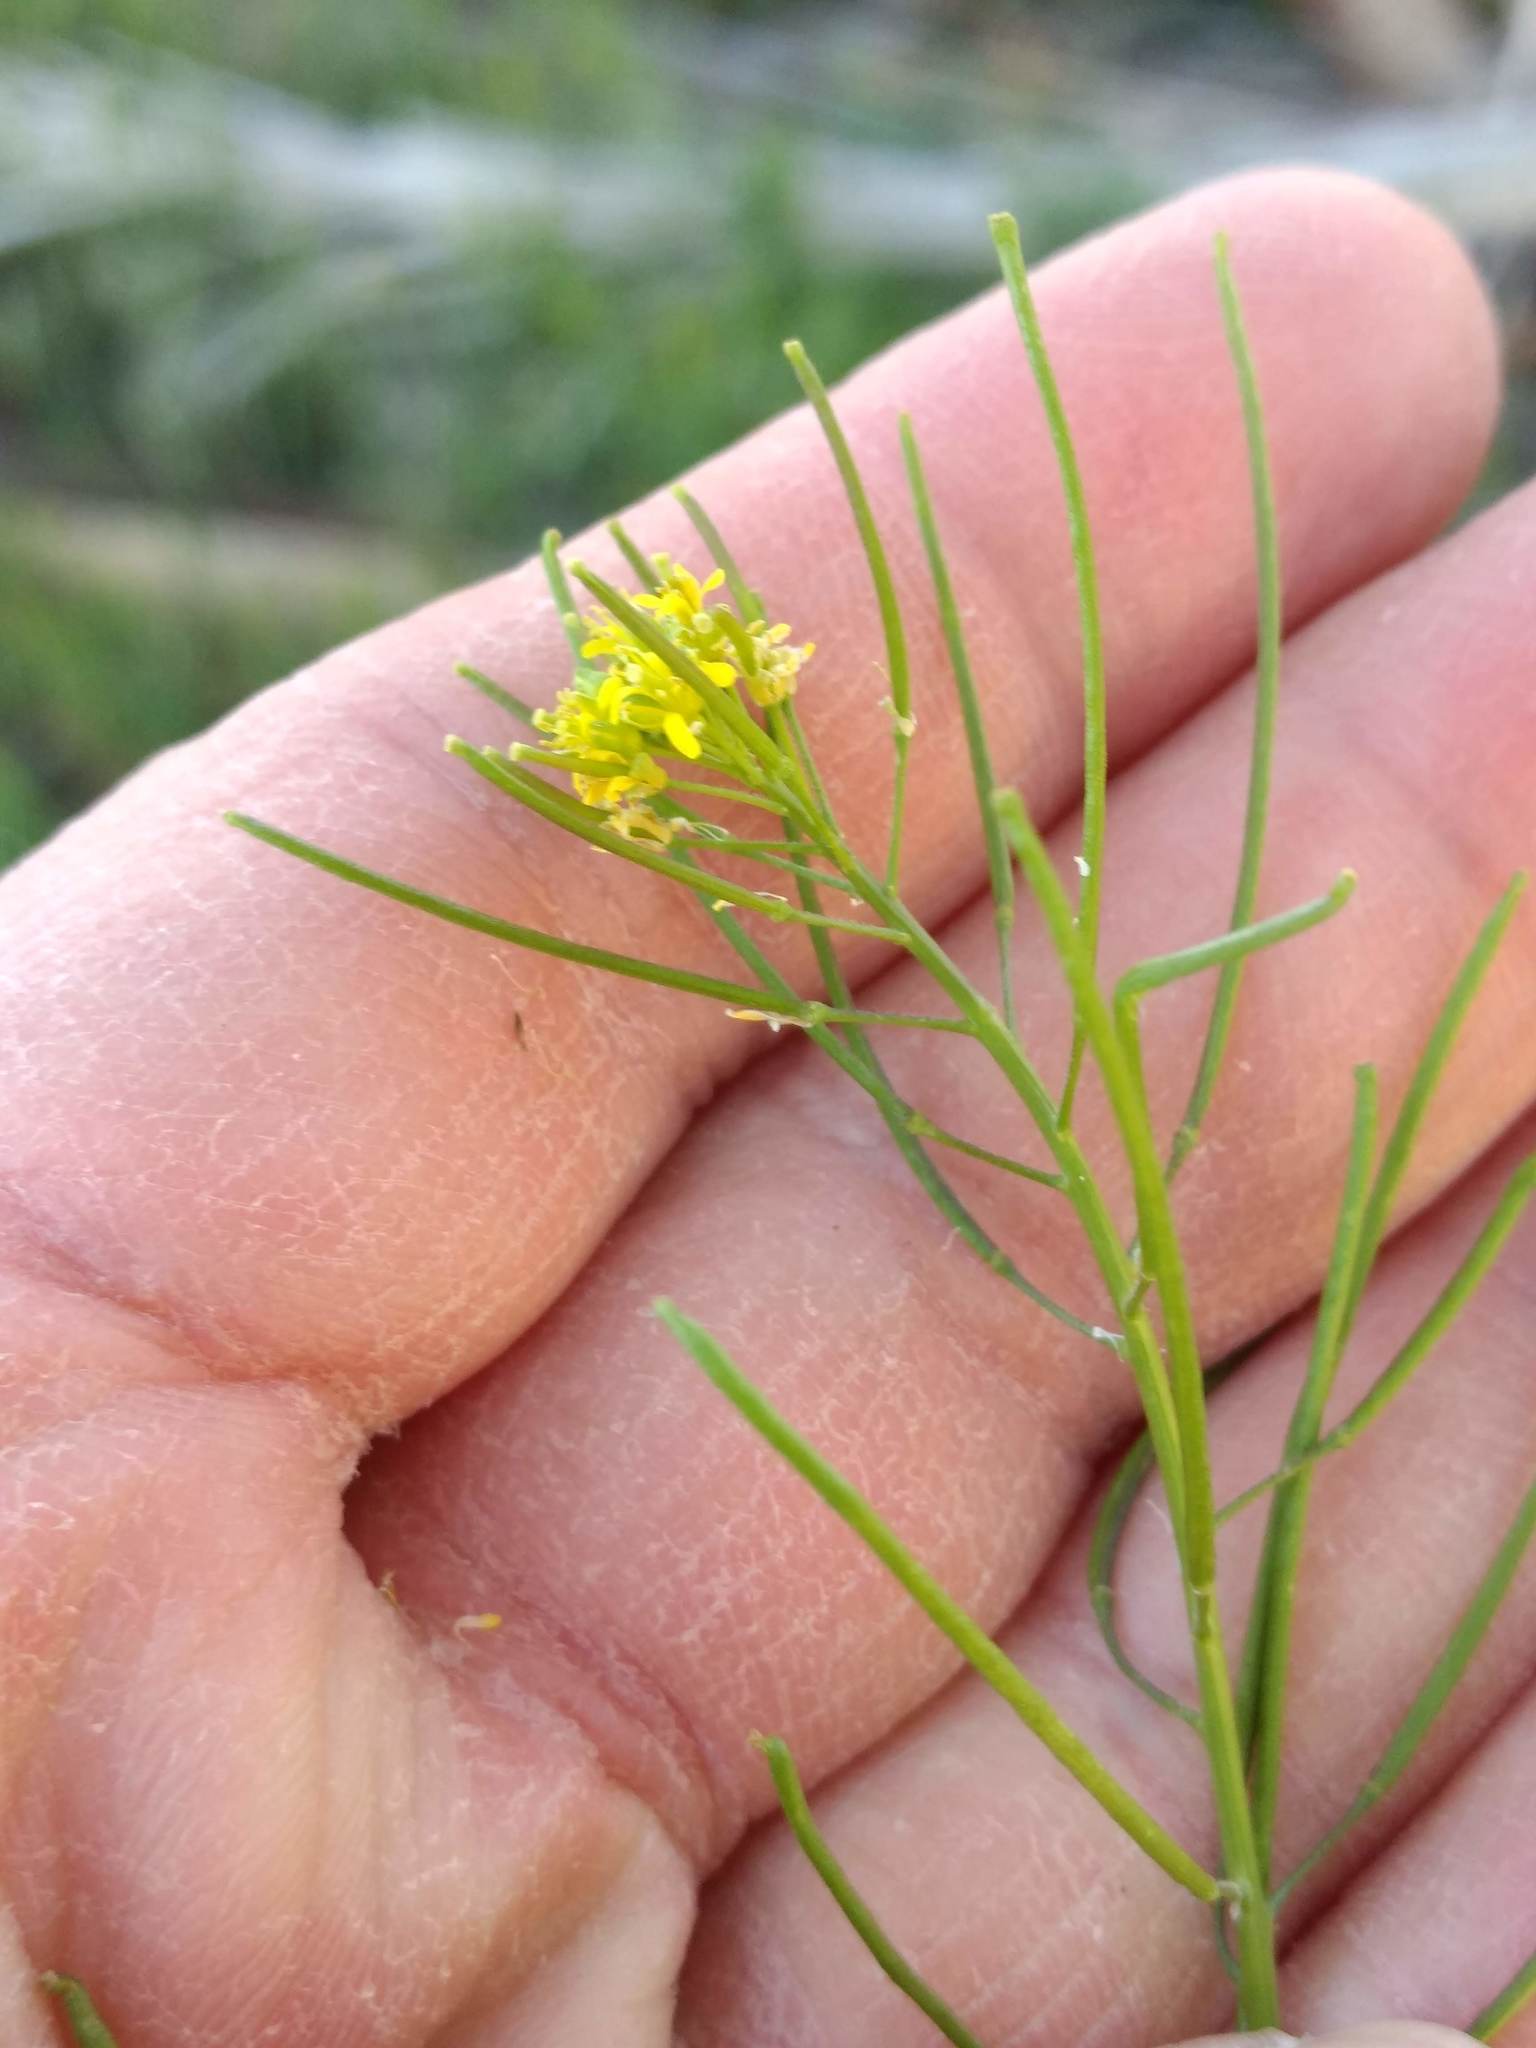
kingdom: Plantae
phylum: Tracheophyta
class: Magnoliopsida
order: Brassicales
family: Brassicaceae
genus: Sisymbrium
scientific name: Sisymbrium irio
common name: London rocket
